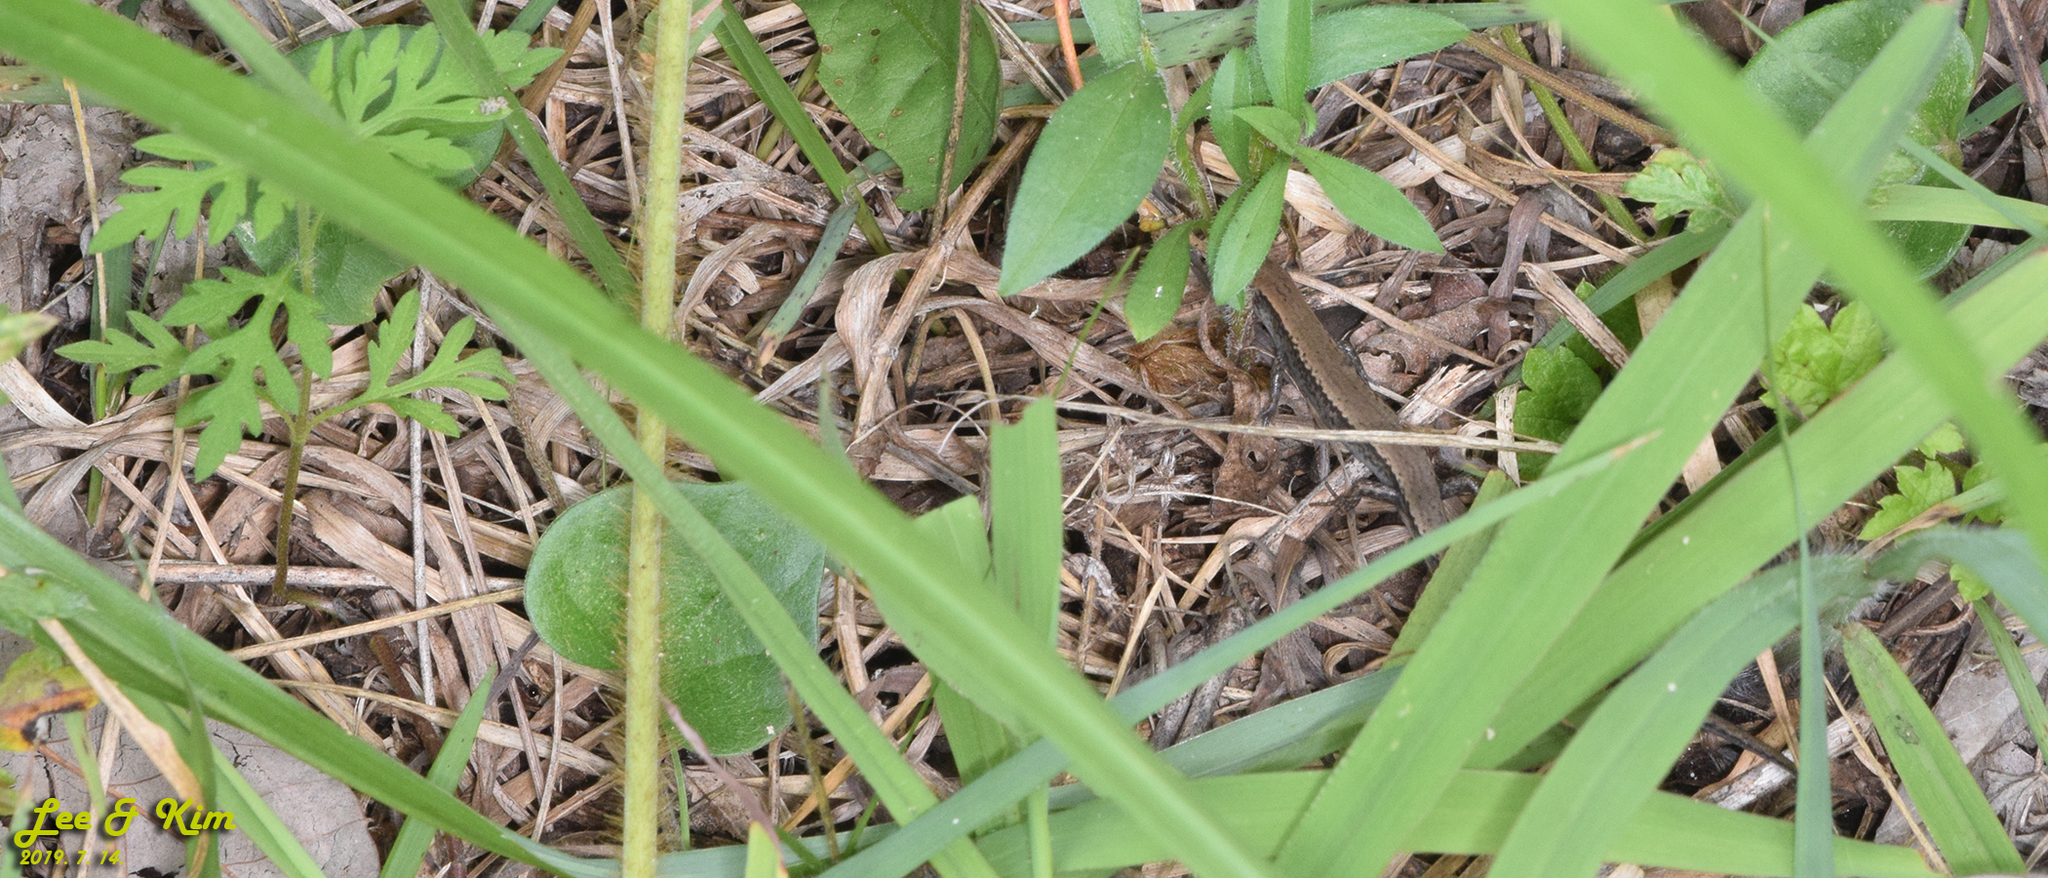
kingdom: Animalia
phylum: Chordata
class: Squamata
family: Scincidae
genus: Scincella
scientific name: Scincella vandenburghi
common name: Tsushima smooth skink
